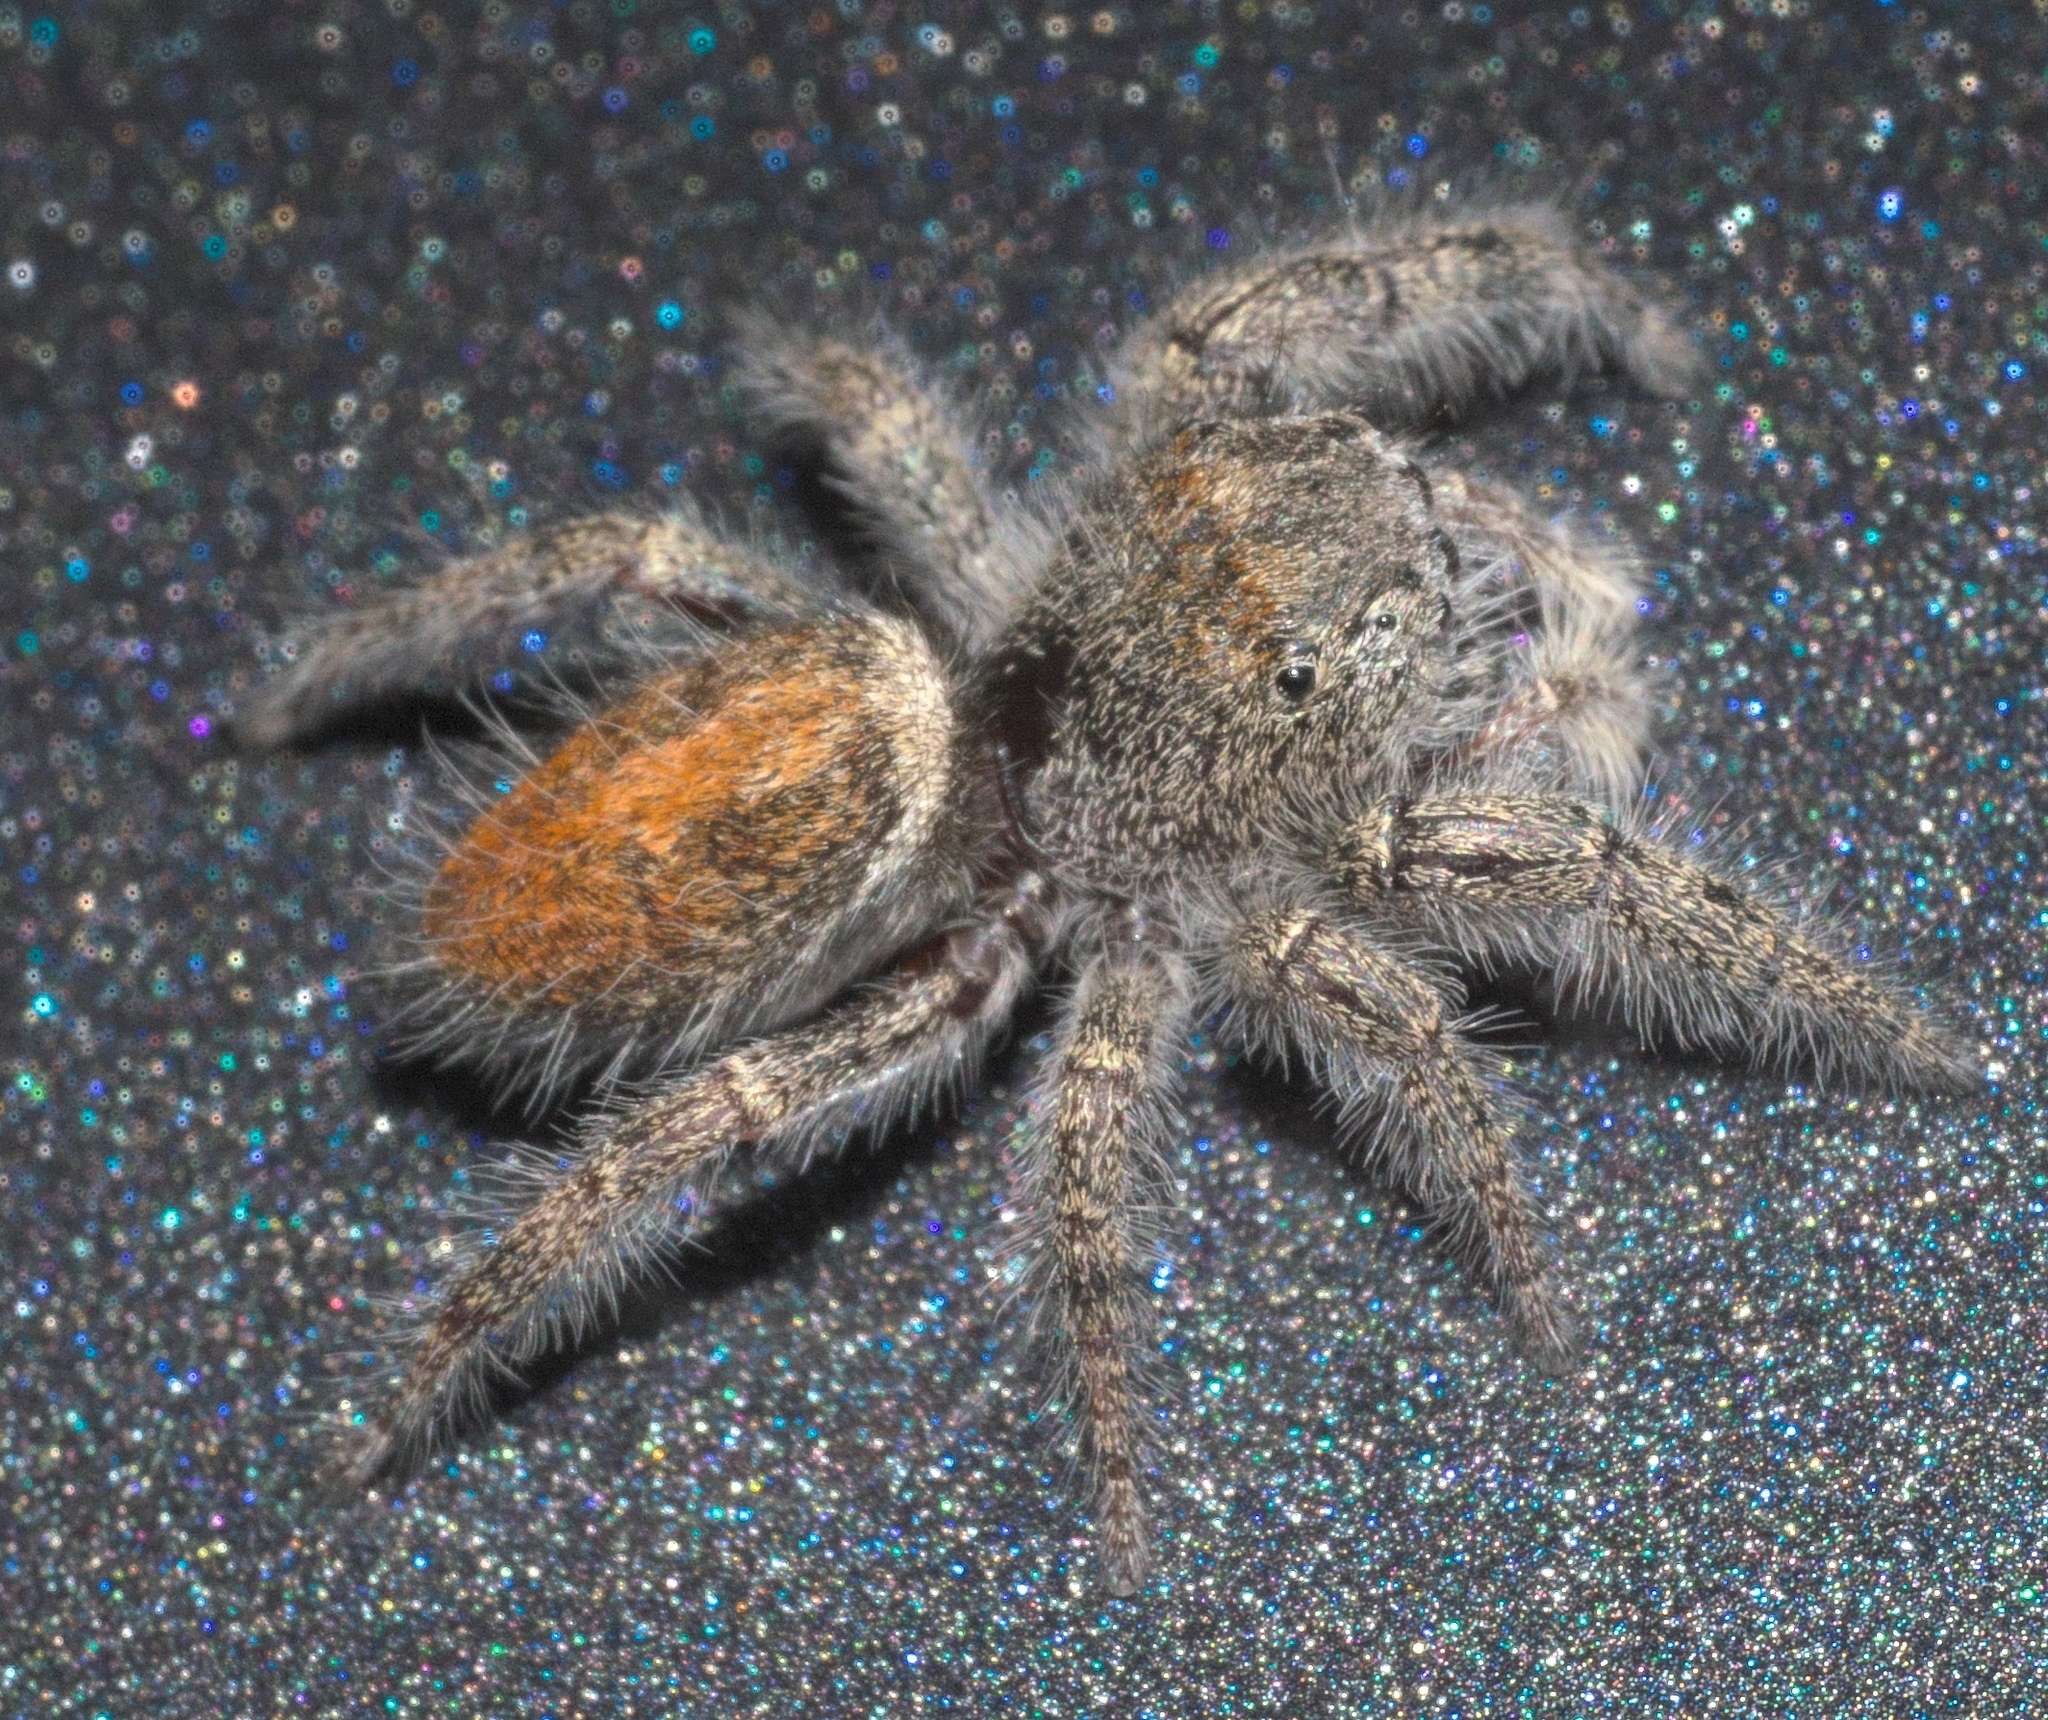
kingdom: Animalia
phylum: Arthropoda
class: Arachnida
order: Araneae
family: Salticidae
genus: Phidippus
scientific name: Phidippus princeps
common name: Grayish jumping spider
